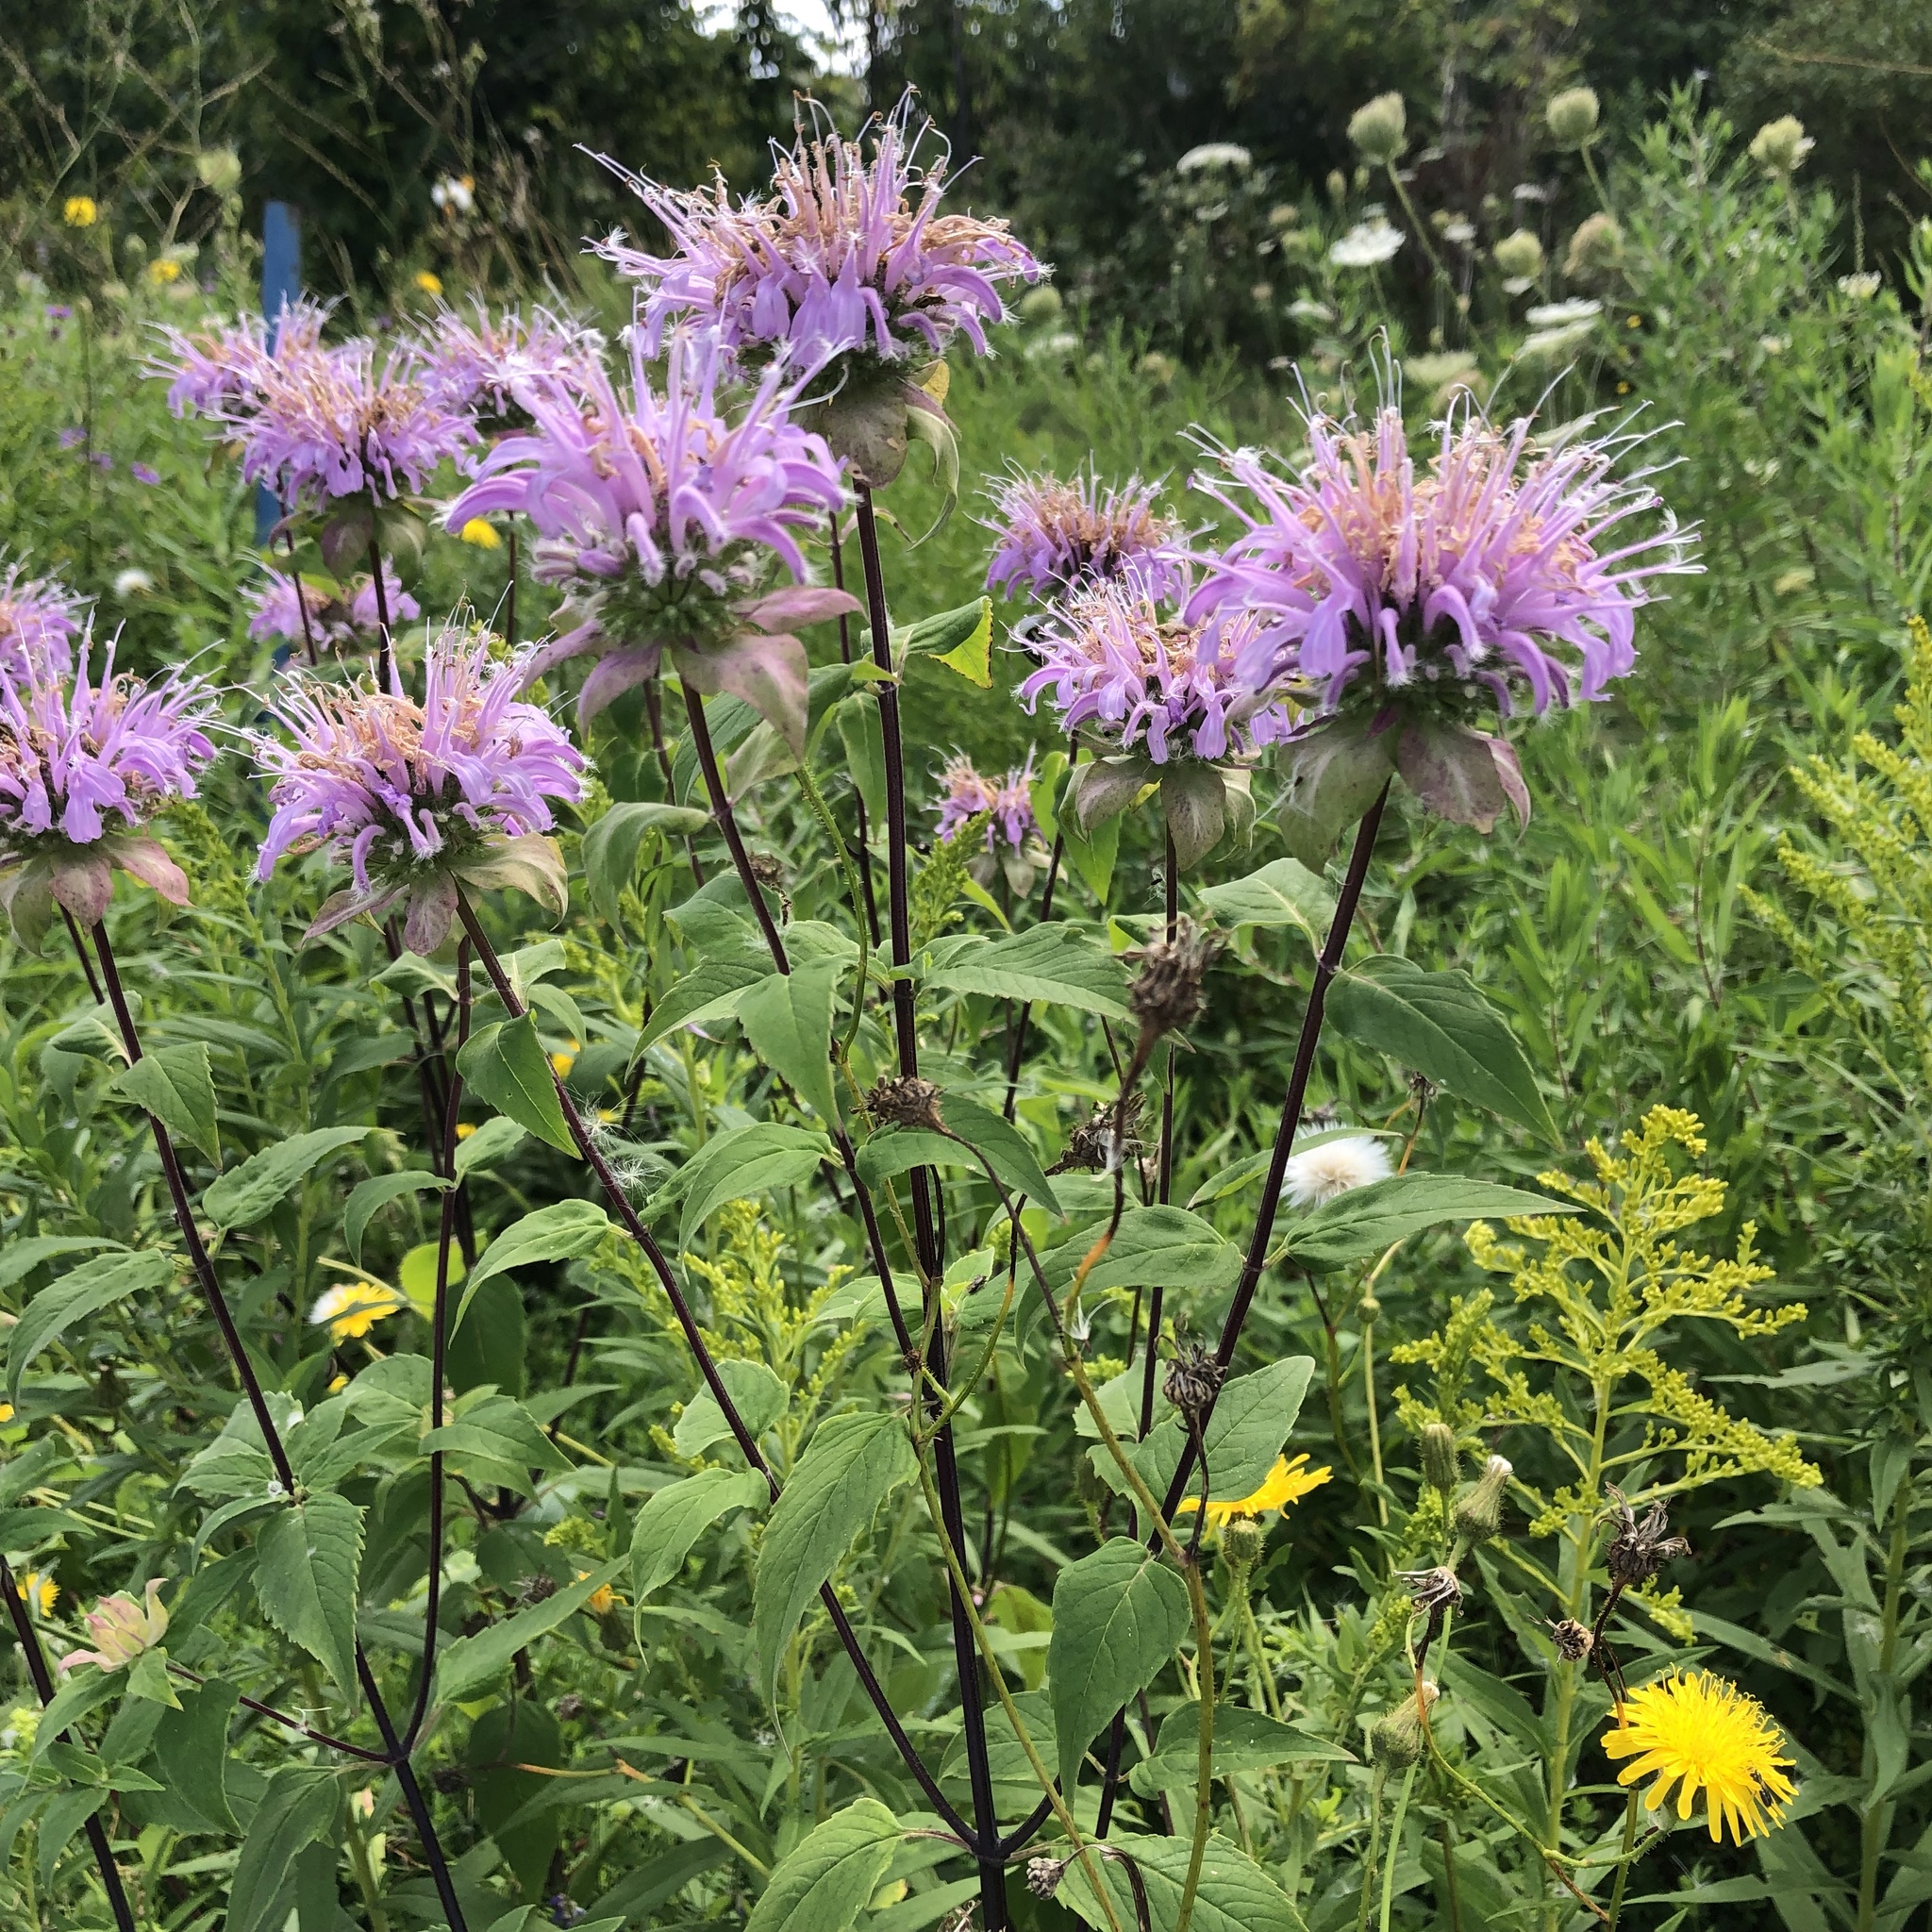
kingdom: Plantae
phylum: Tracheophyta
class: Magnoliopsida
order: Lamiales
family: Lamiaceae
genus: Monarda
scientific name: Monarda fistulosa
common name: Purple beebalm
